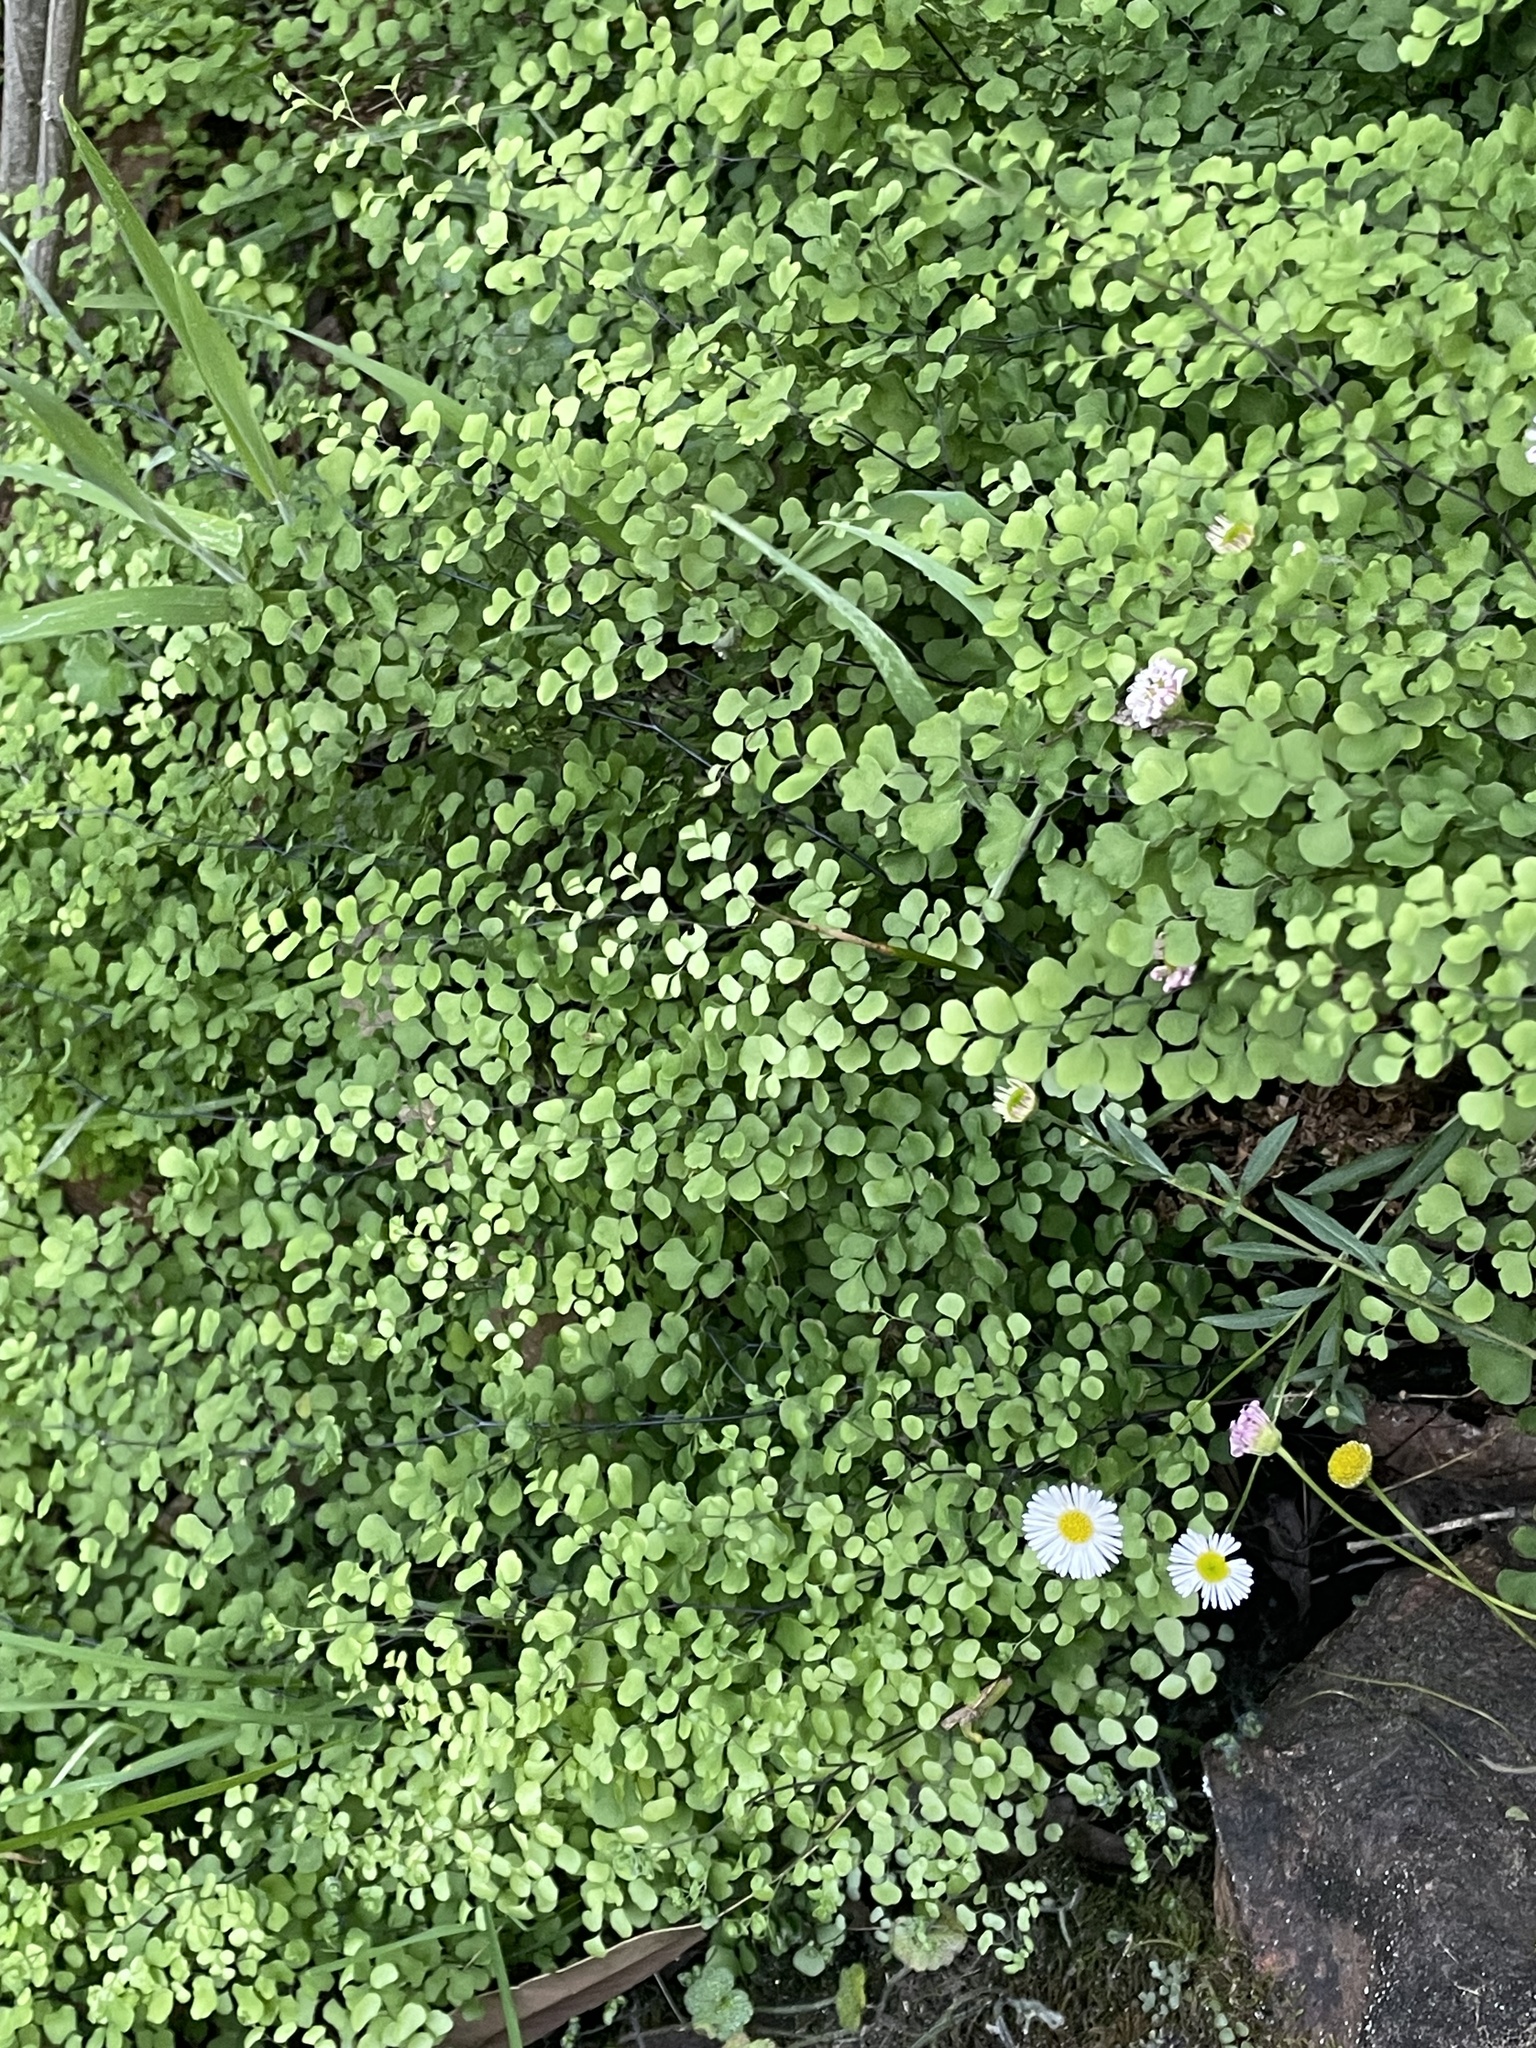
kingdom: Plantae
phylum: Tracheophyta
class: Polypodiopsida
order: Polypodiales
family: Pteridaceae
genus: Adiantum
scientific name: Adiantum aethiopicum
